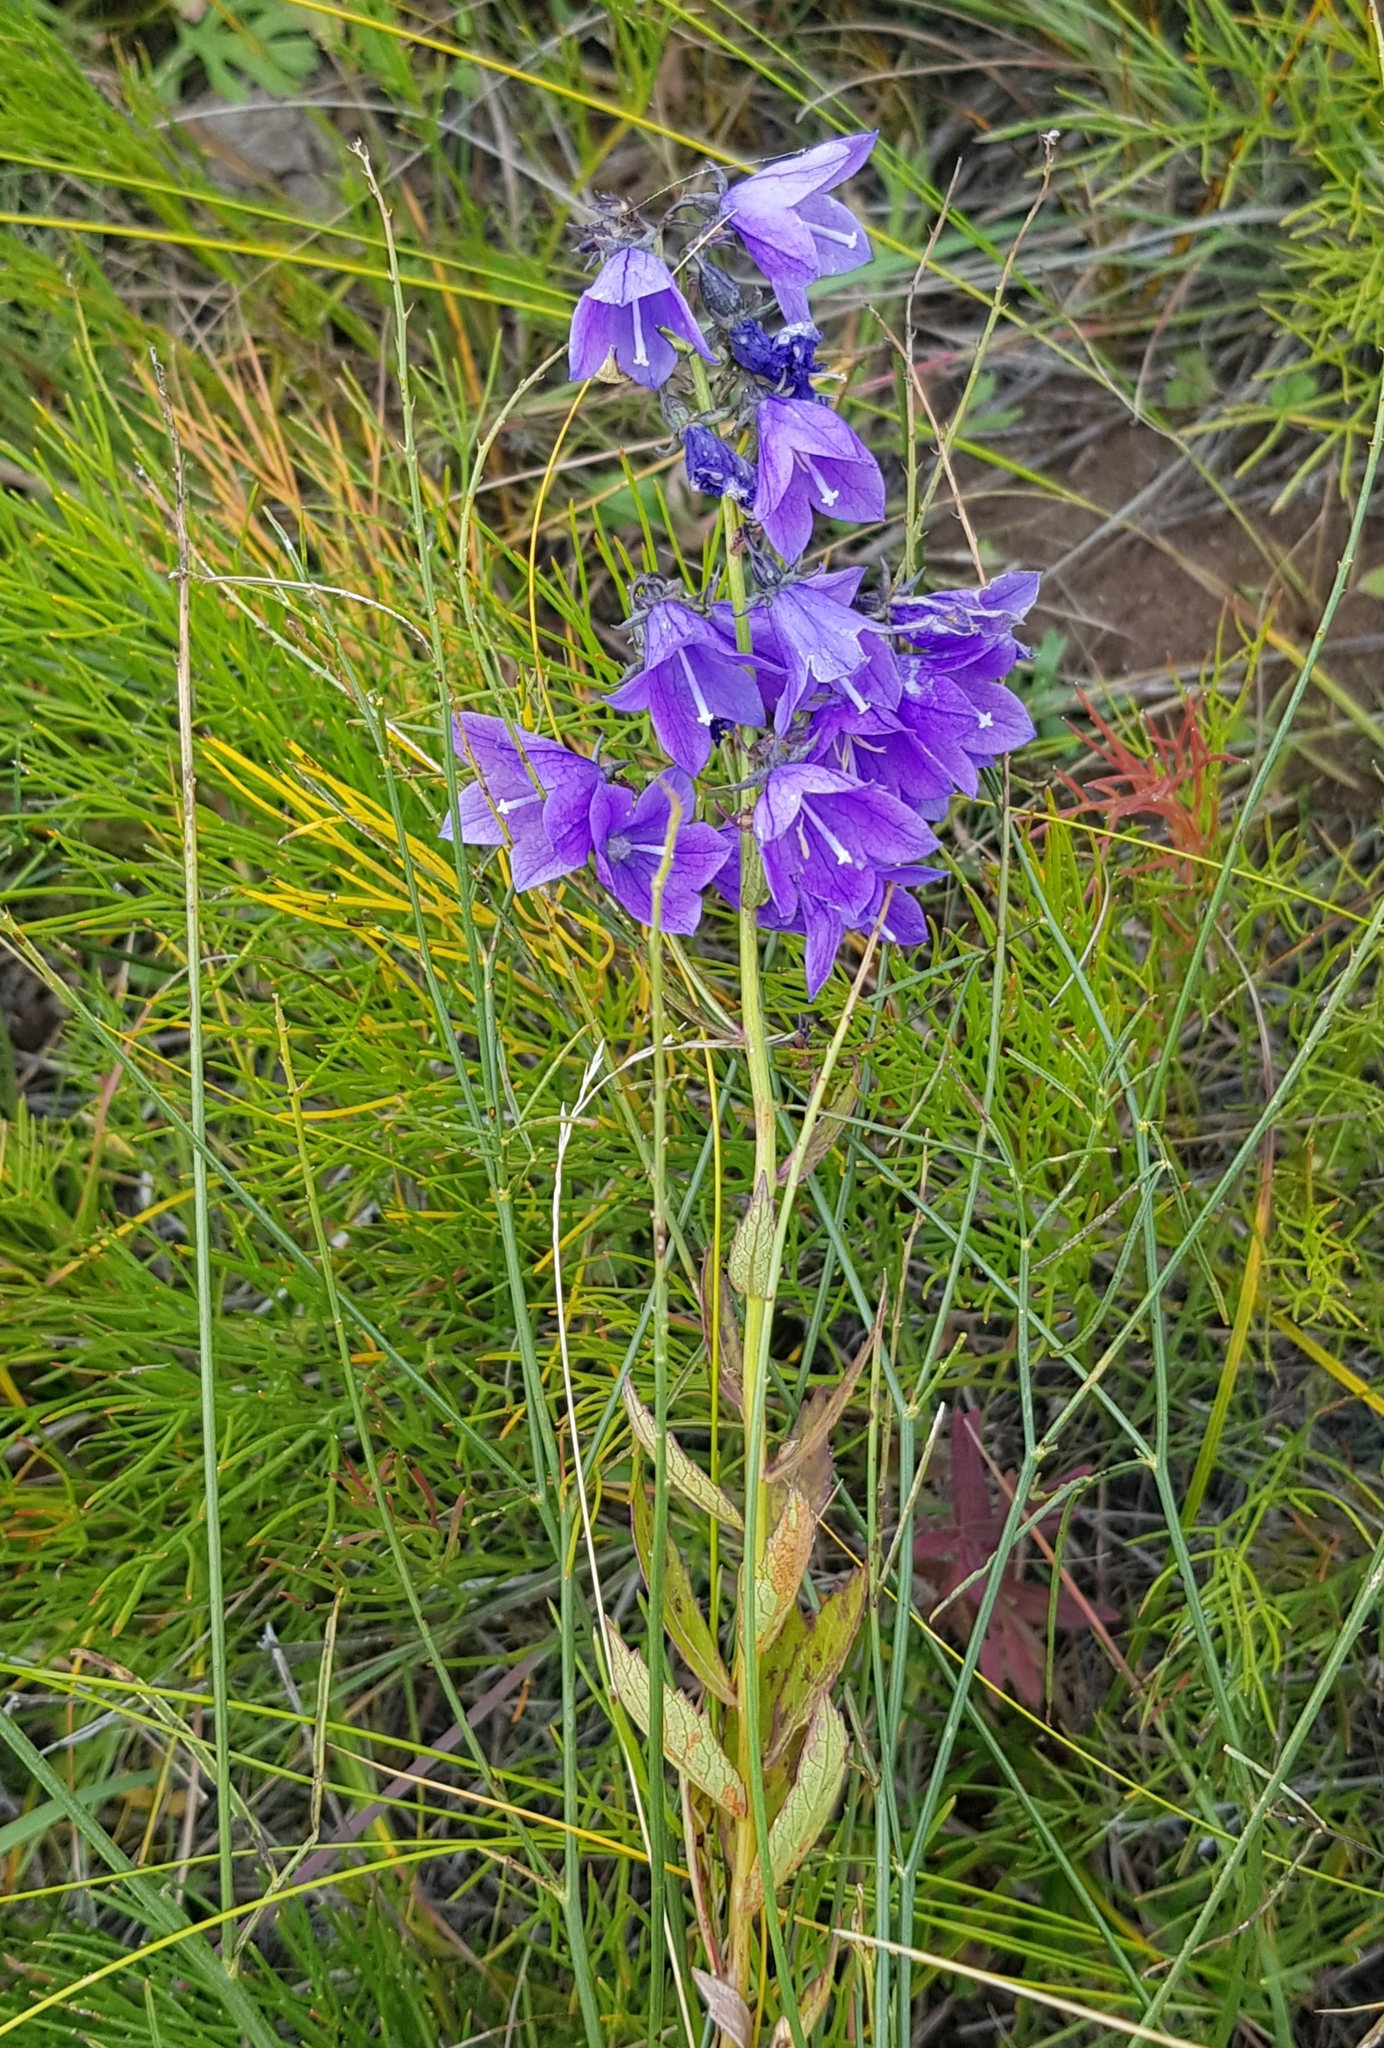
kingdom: Plantae
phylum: Tracheophyta
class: Magnoliopsida
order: Asterales
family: Campanulaceae
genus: Adenophora
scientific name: Adenophora pereskiifolia
